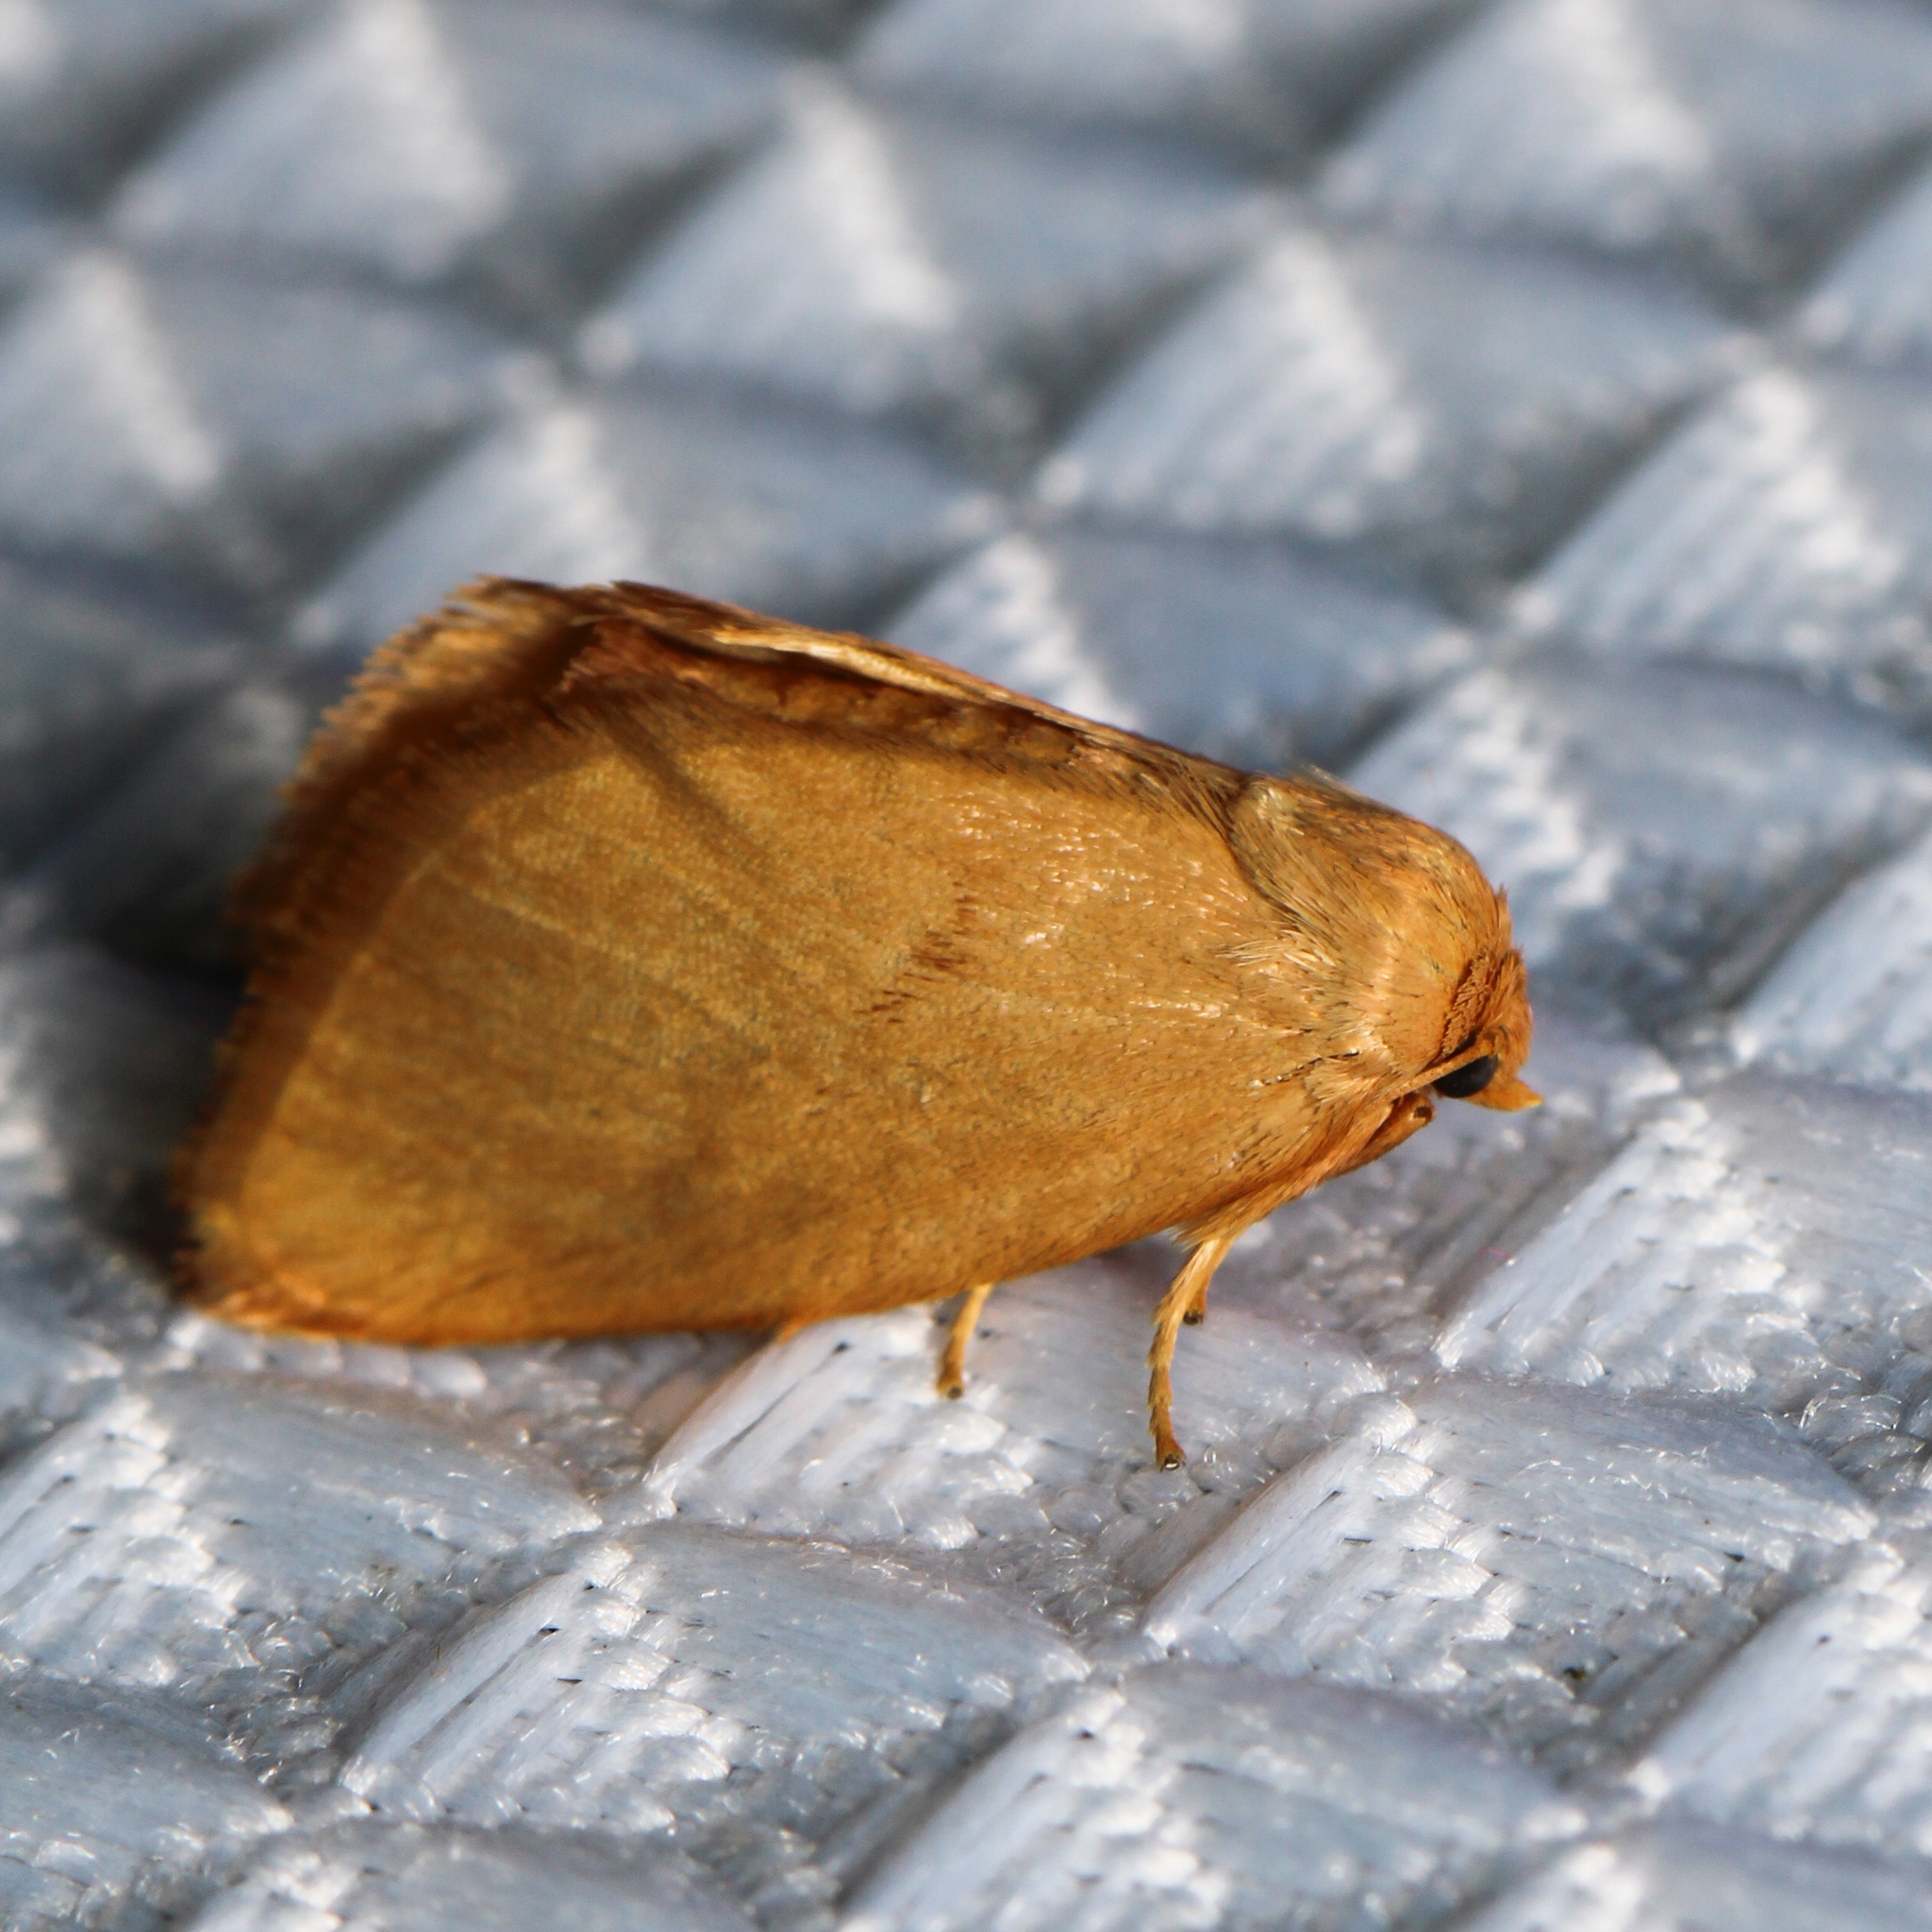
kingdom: Animalia
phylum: Arthropoda
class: Insecta
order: Lepidoptera
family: Limacodidae
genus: Tortricidia
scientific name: Tortricidia pallida
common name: Red-crossed button slug moth
